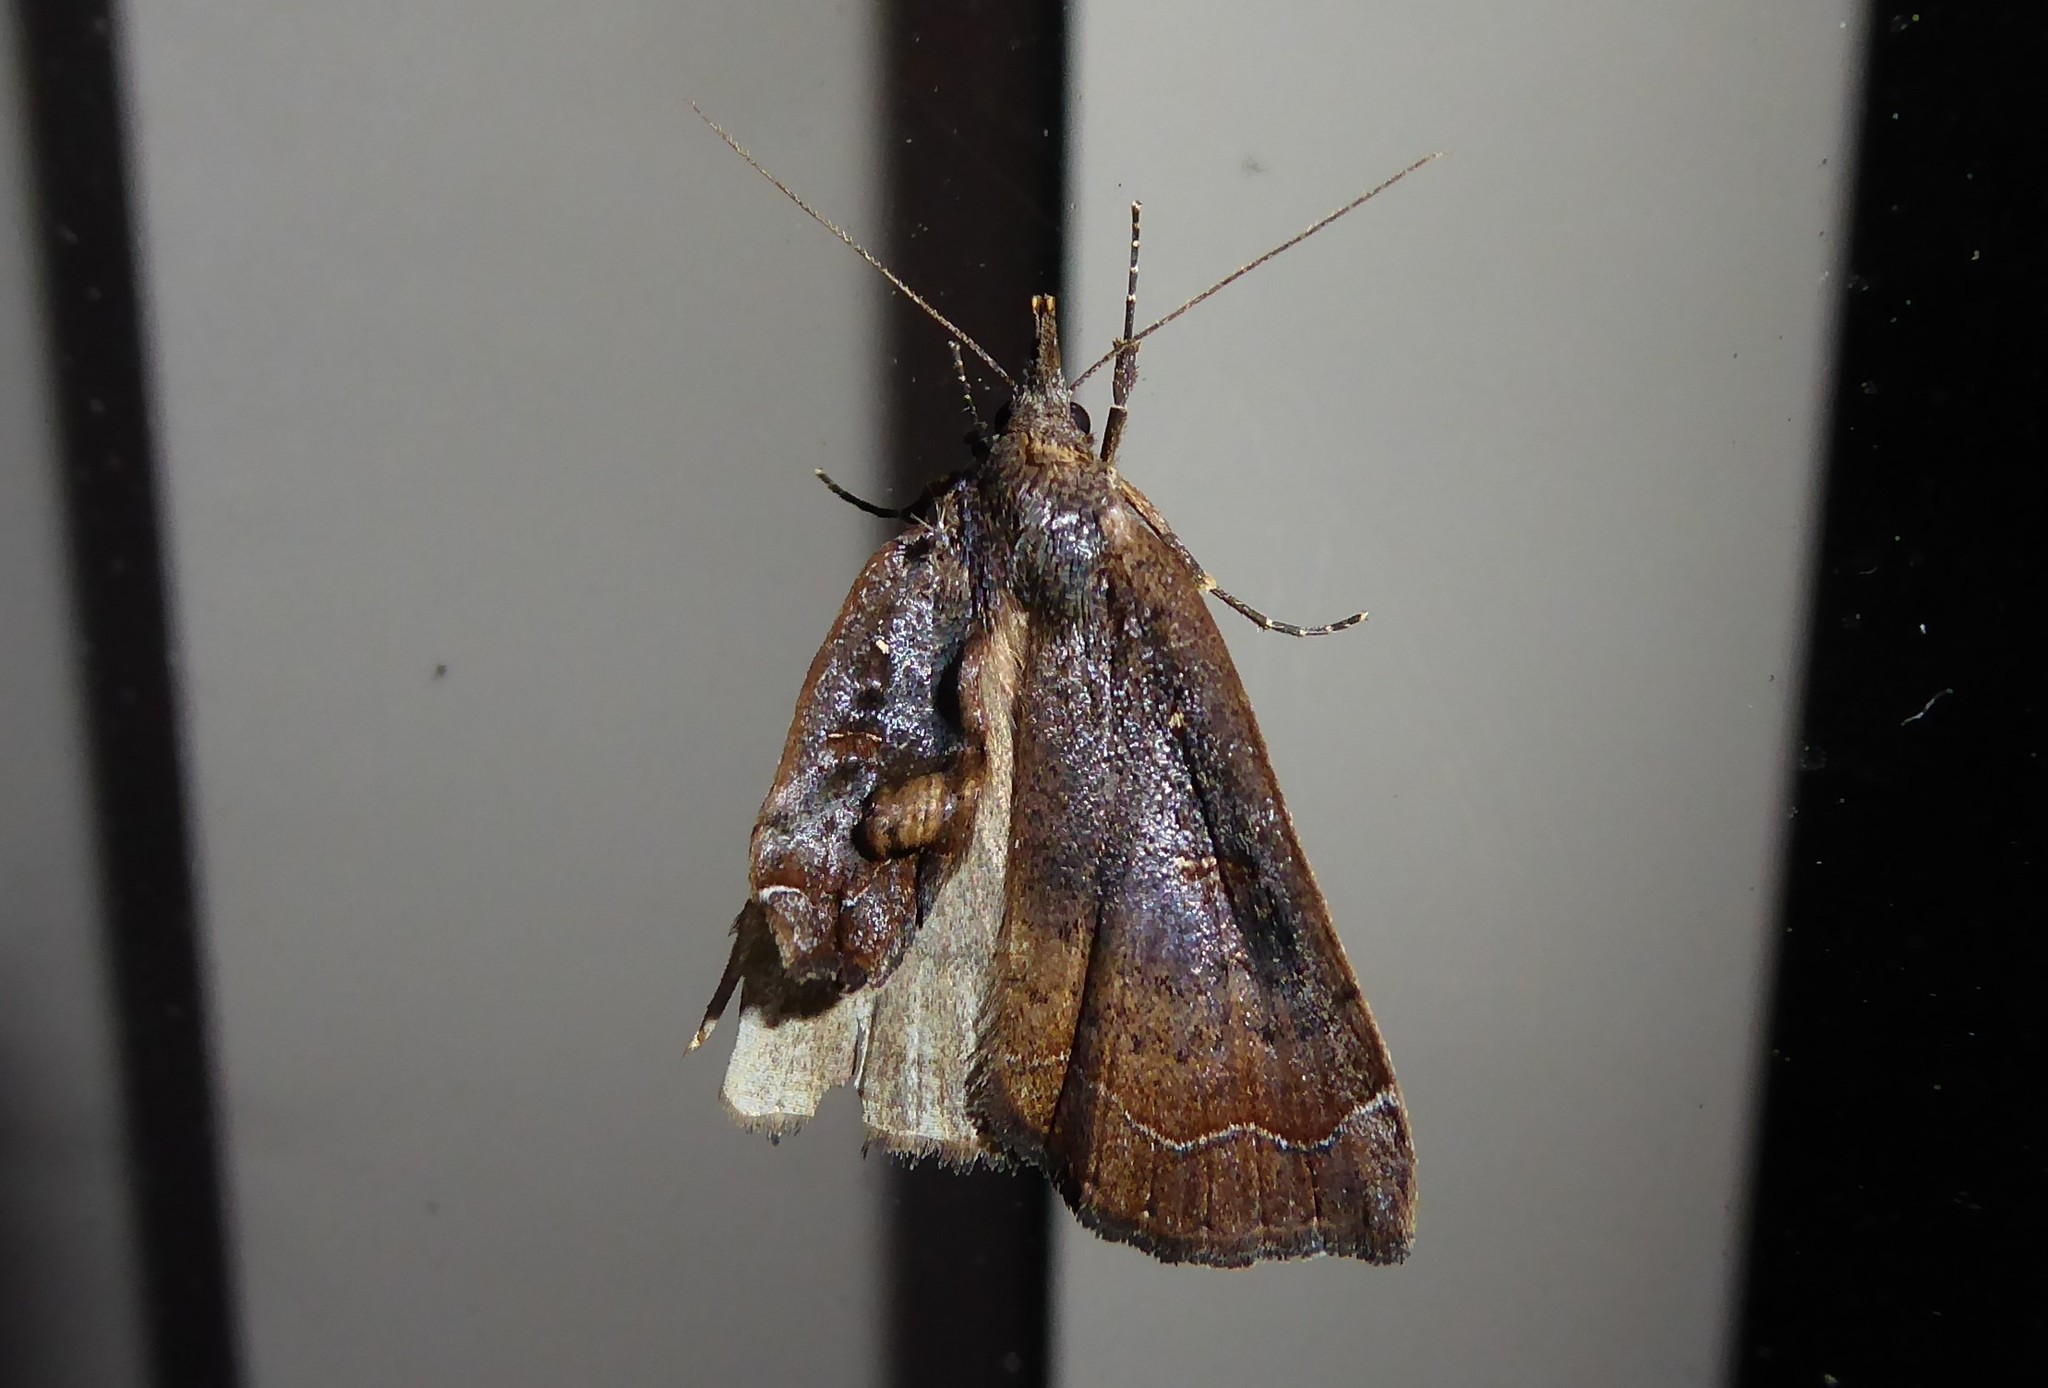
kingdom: Animalia
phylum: Arthropoda
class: Insecta
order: Lepidoptera
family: Erebidae
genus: Rhapsa
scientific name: Rhapsa scotosialis
